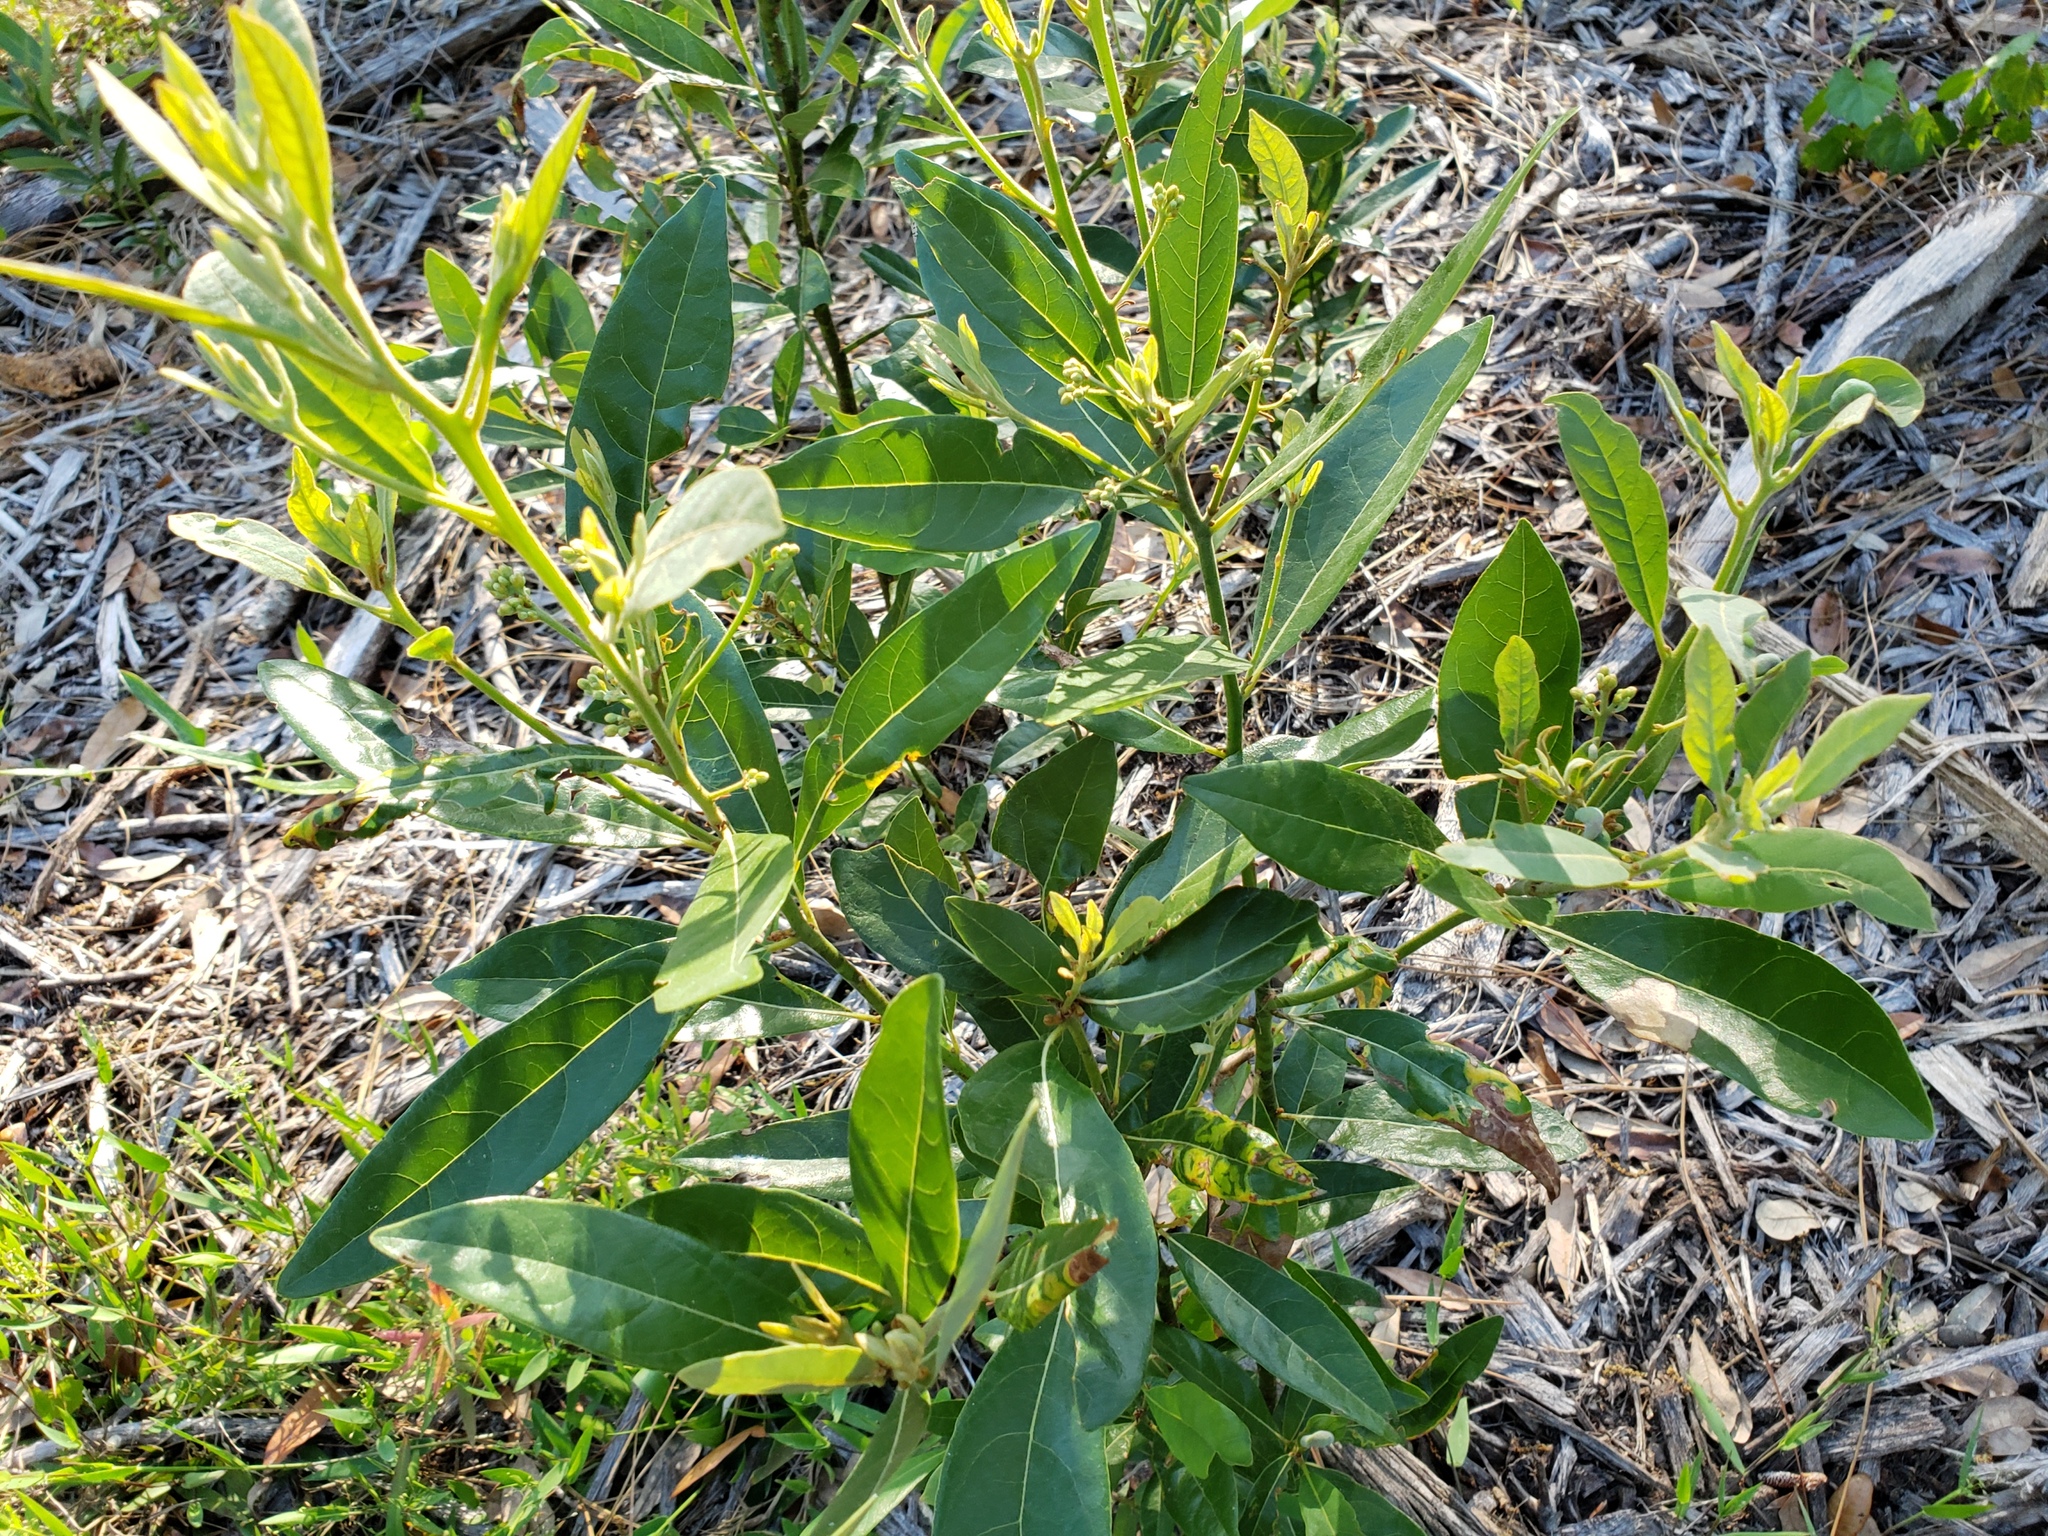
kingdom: Plantae
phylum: Tracheophyta
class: Magnoliopsida
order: Laurales
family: Lauraceae
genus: Persea
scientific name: Persea palustris
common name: Swampbay
